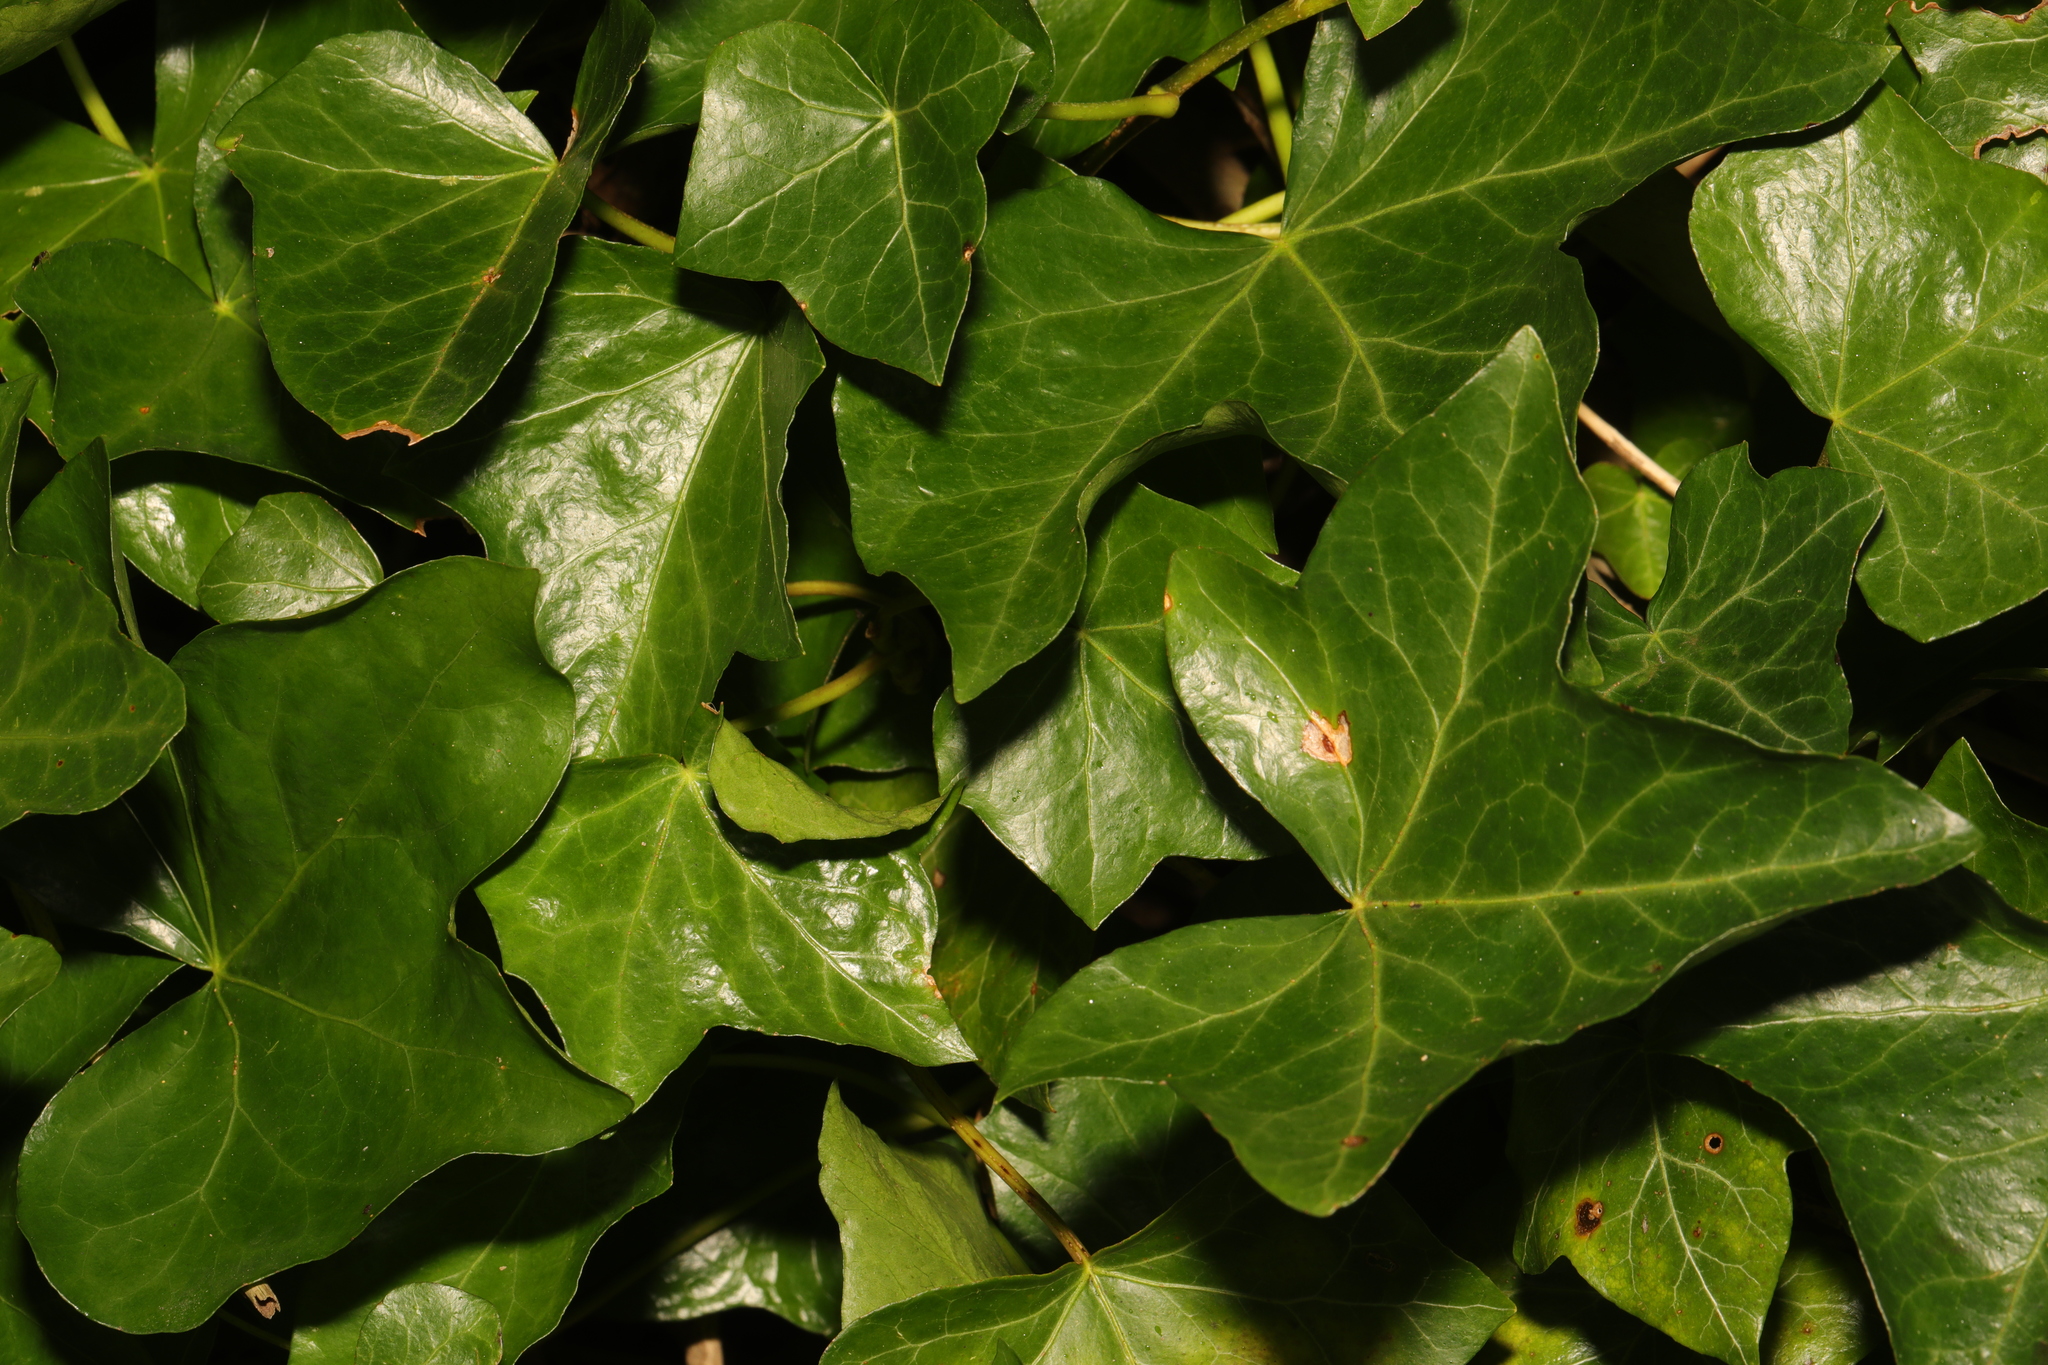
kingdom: Plantae
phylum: Tracheophyta
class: Magnoliopsida
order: Apiales
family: Araliaceae
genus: Hedera
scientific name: Hedera helix
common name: Ivy
